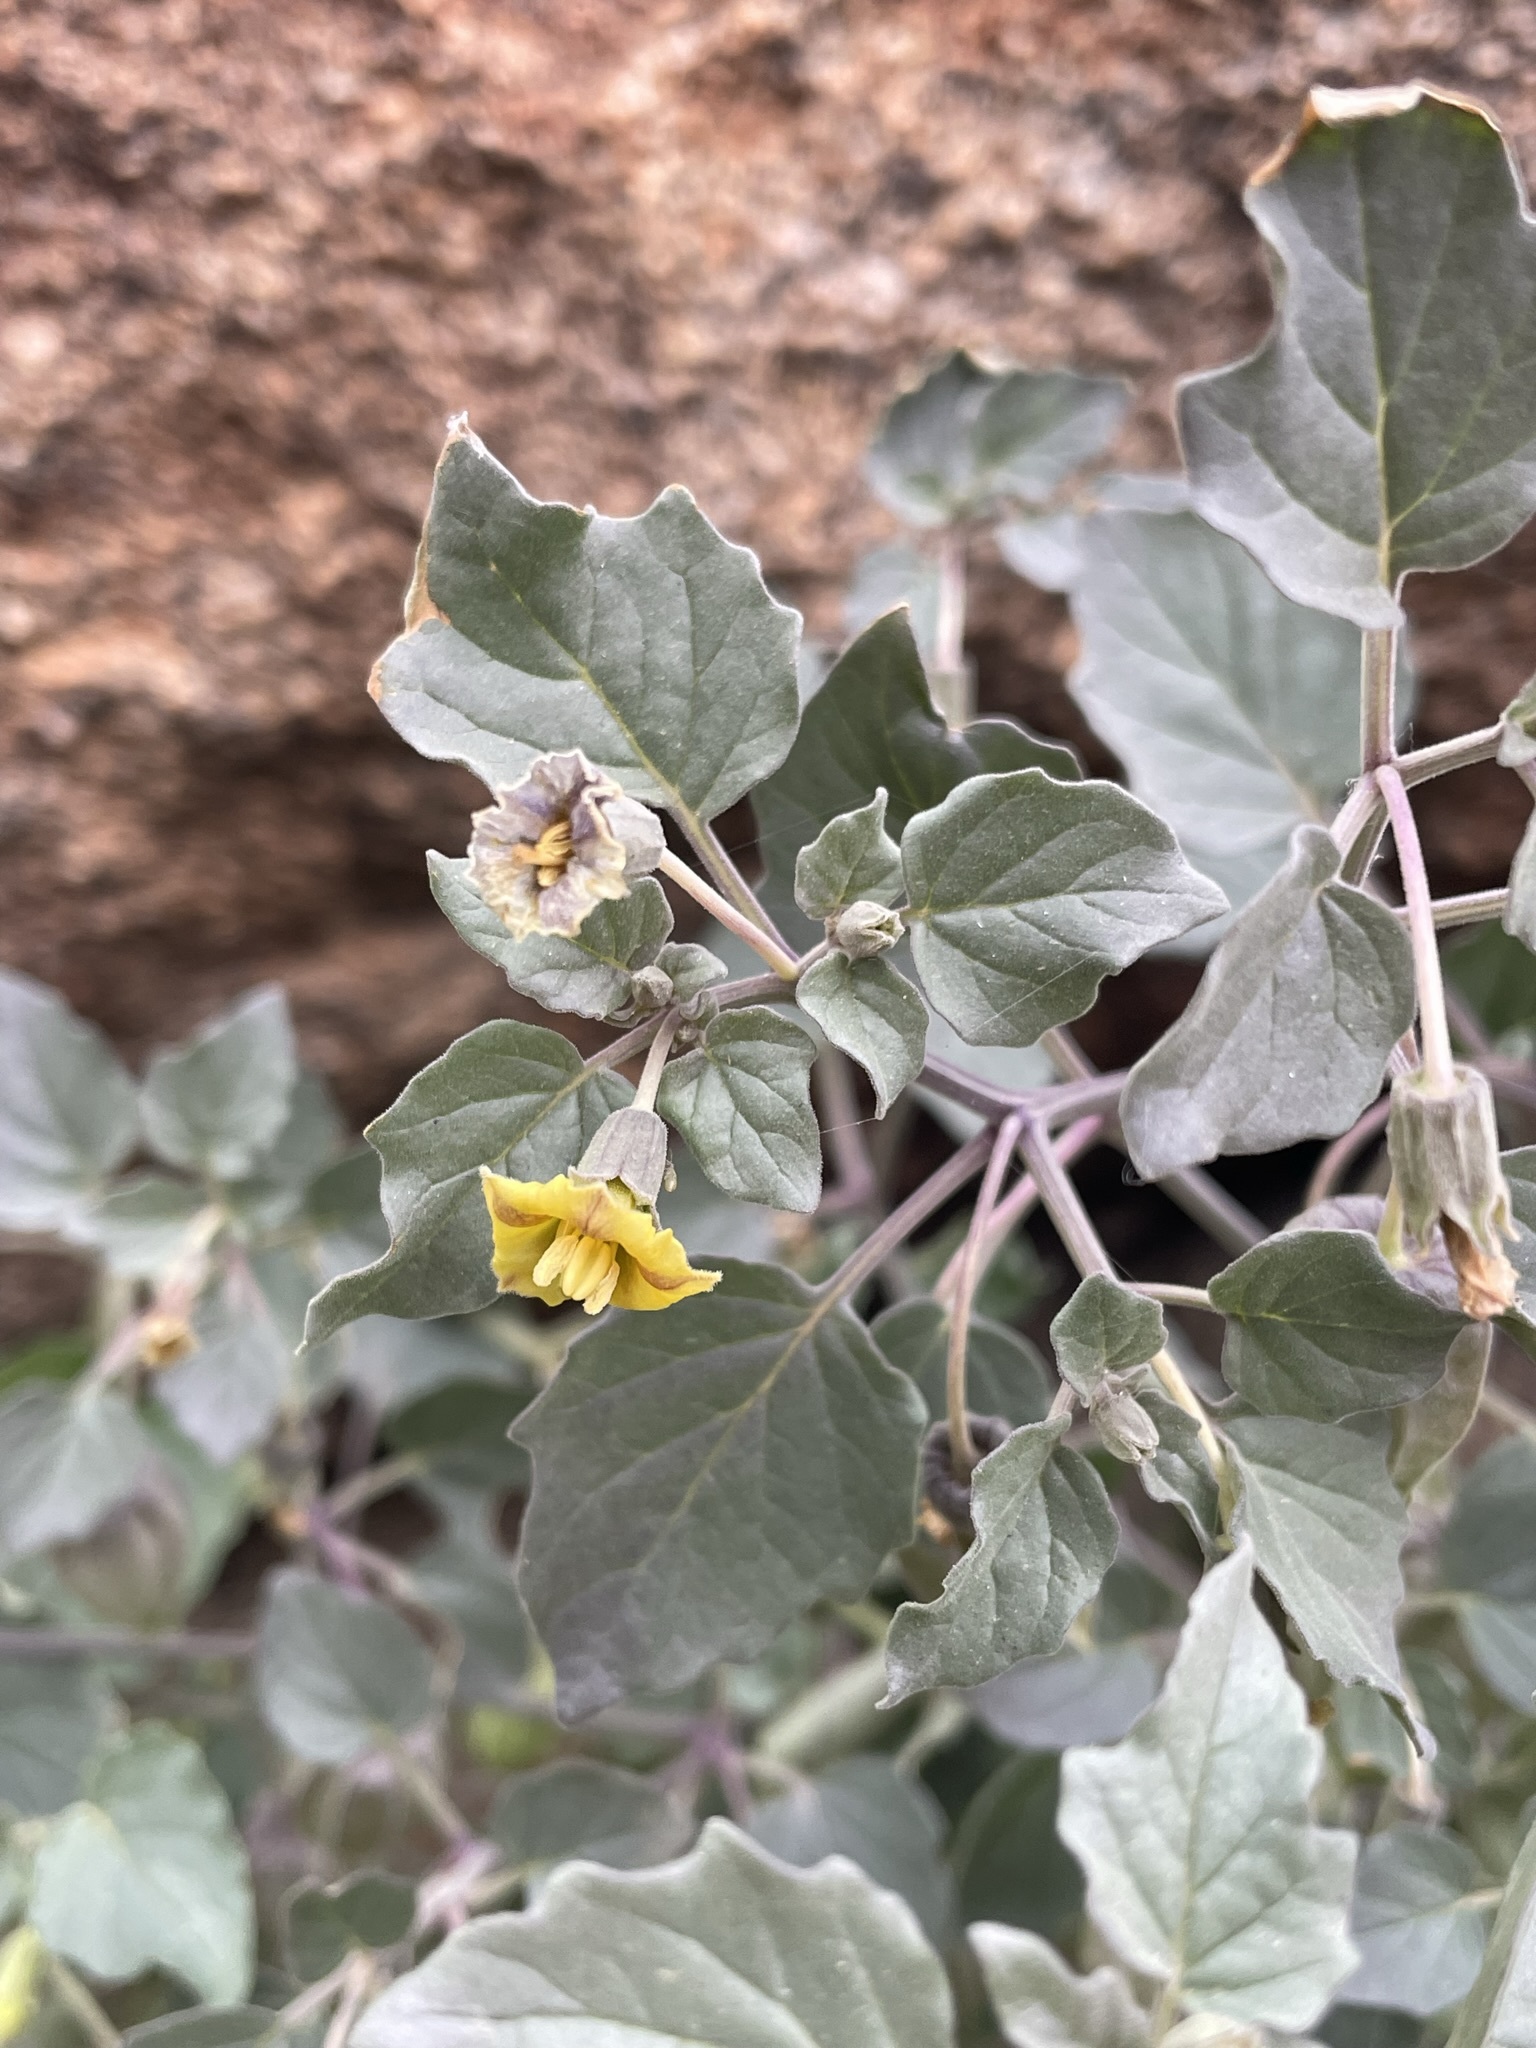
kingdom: Plantae
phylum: Tracheophyta
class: Magnoliopsida
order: Solanales
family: Solanaceae
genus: Physalis
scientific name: Physalis crassifolia
